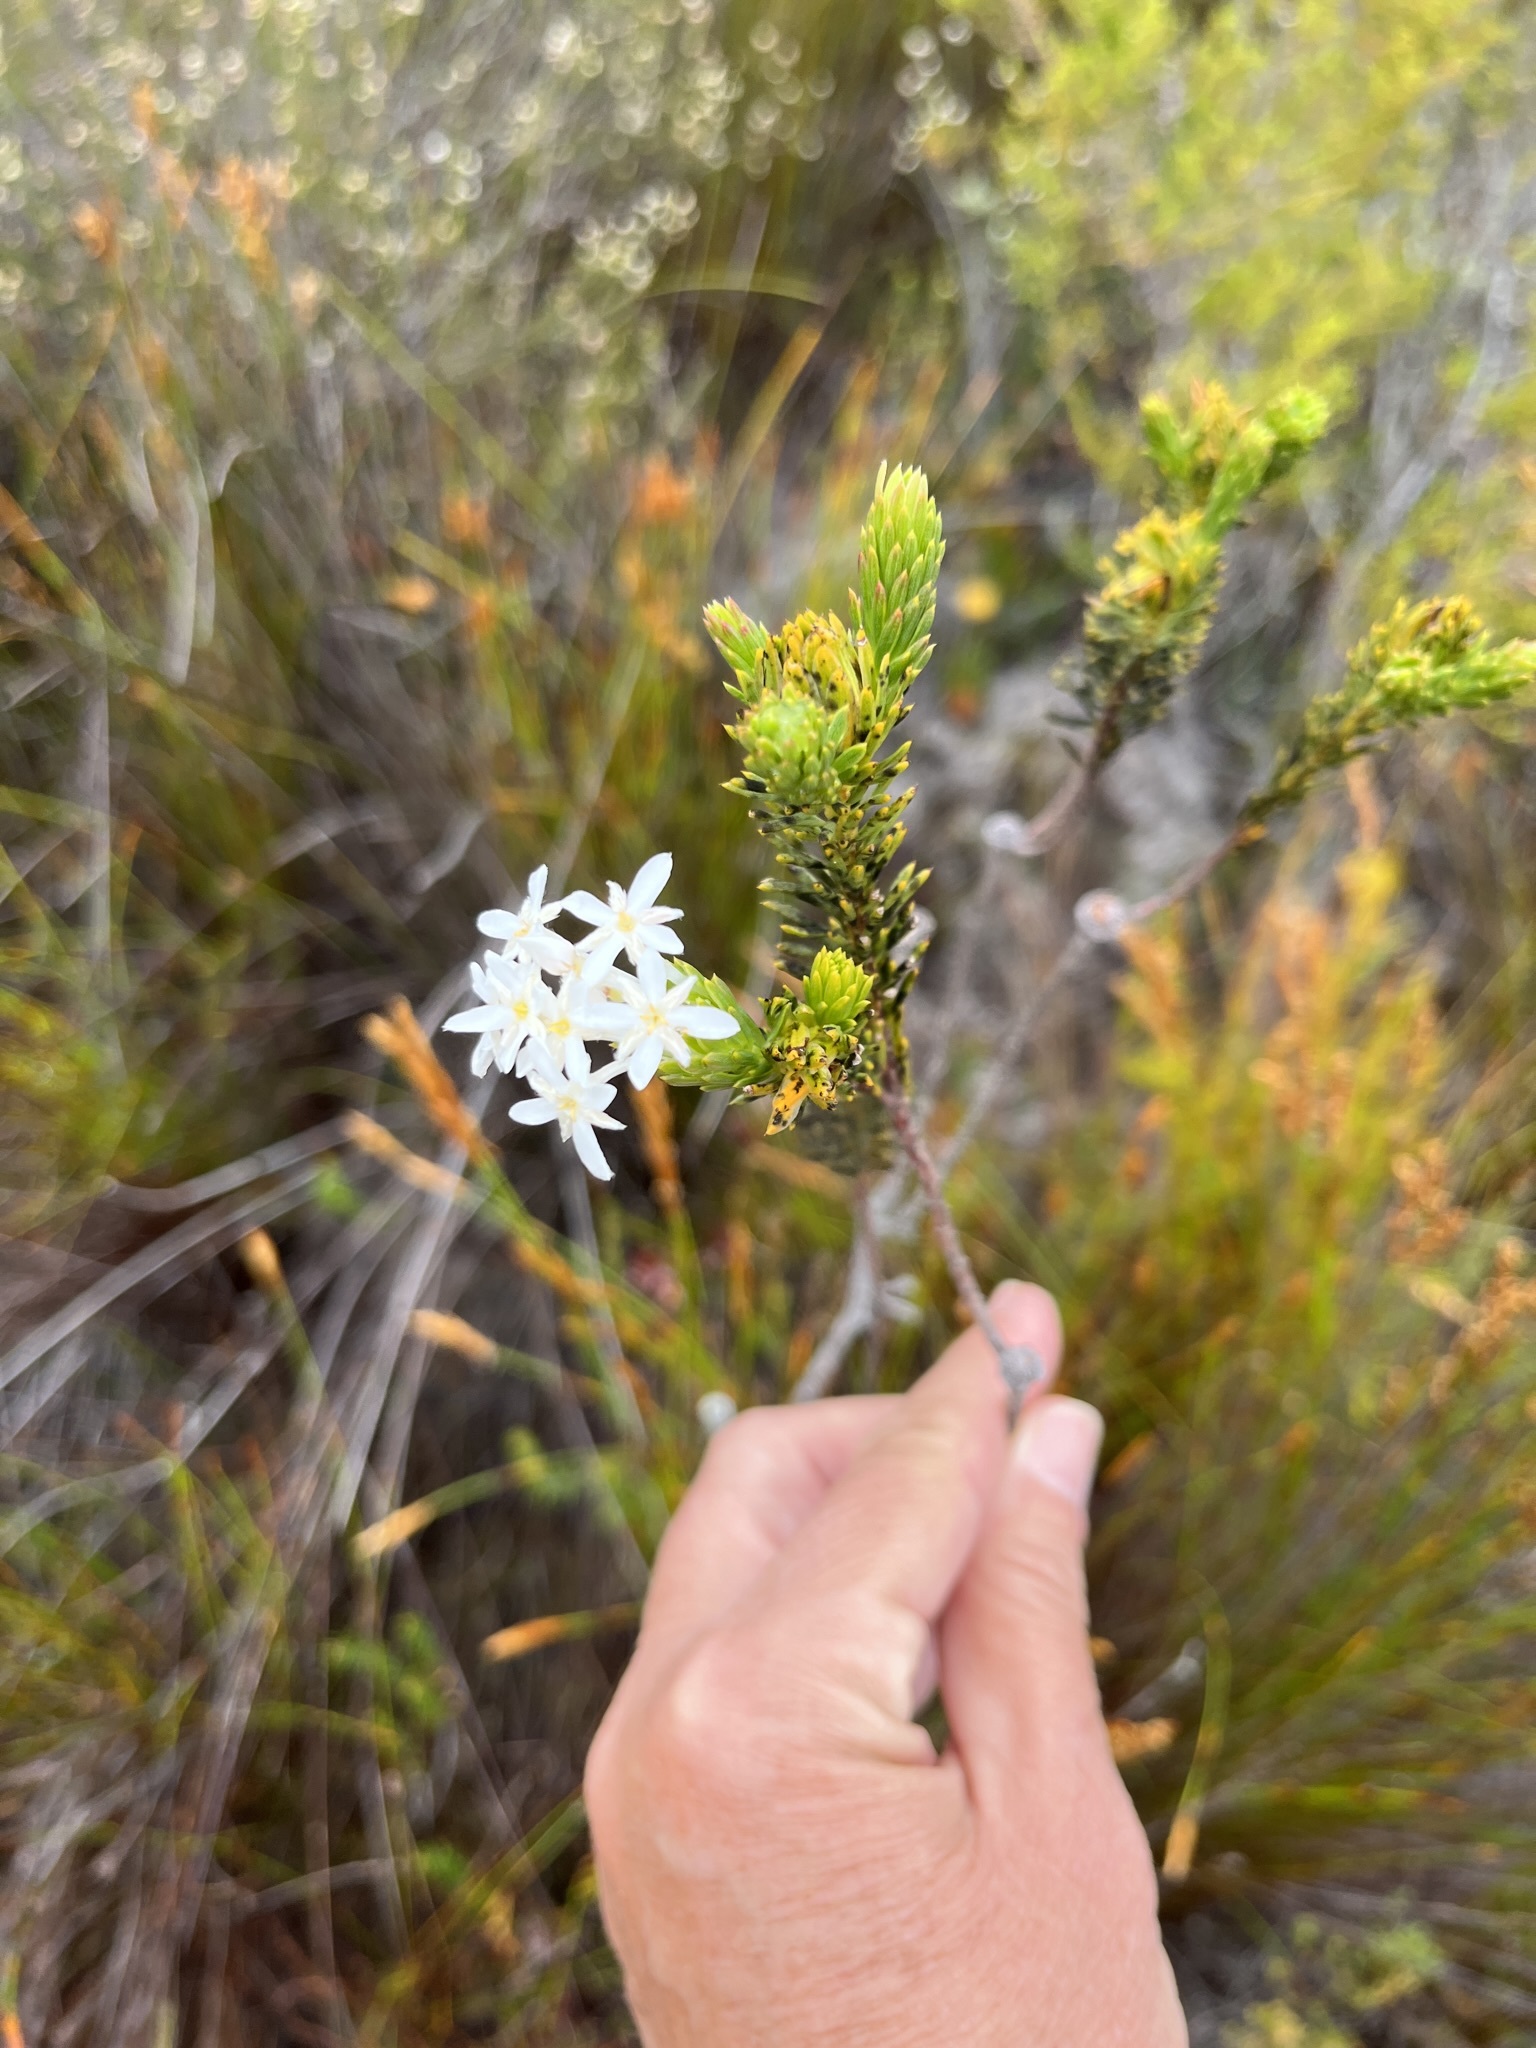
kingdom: Plantae
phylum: Tracheophyta
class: Magnoliopsida
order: Malvales
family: Thymelaeaceae
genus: Gnidia
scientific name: Gnidia pinifolia
